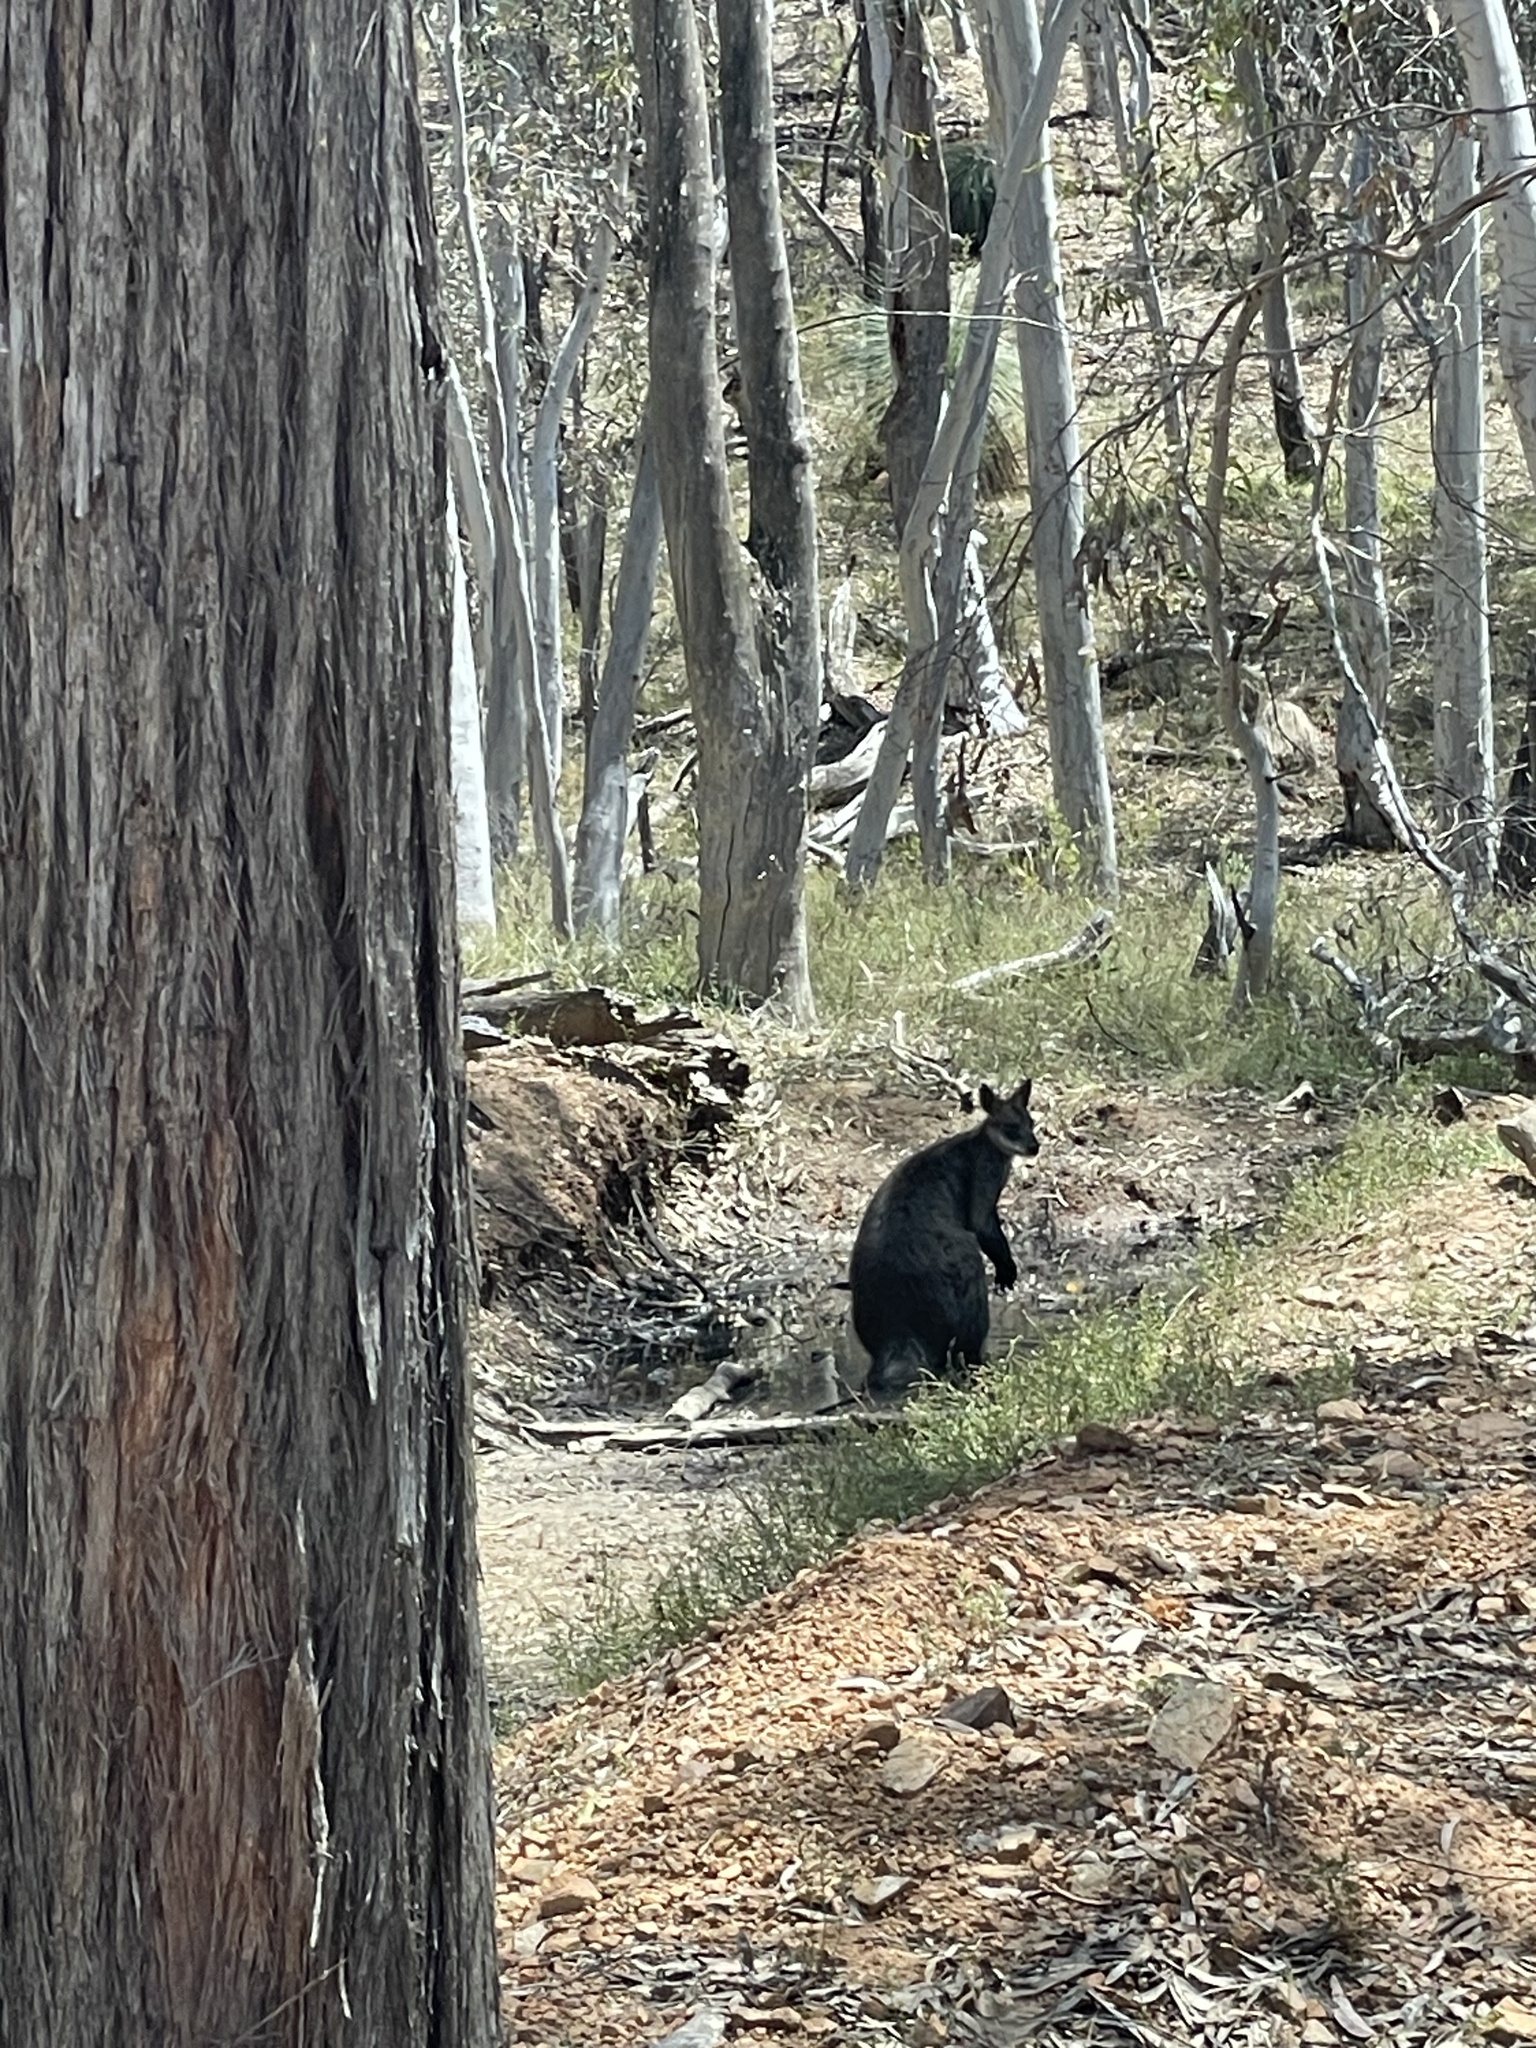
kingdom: Animalia
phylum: Chordata
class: Mammalia
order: Diprotodontia
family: Macropodidae
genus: Wallabia
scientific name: Wallabia bicolor
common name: Swamp wallaby
